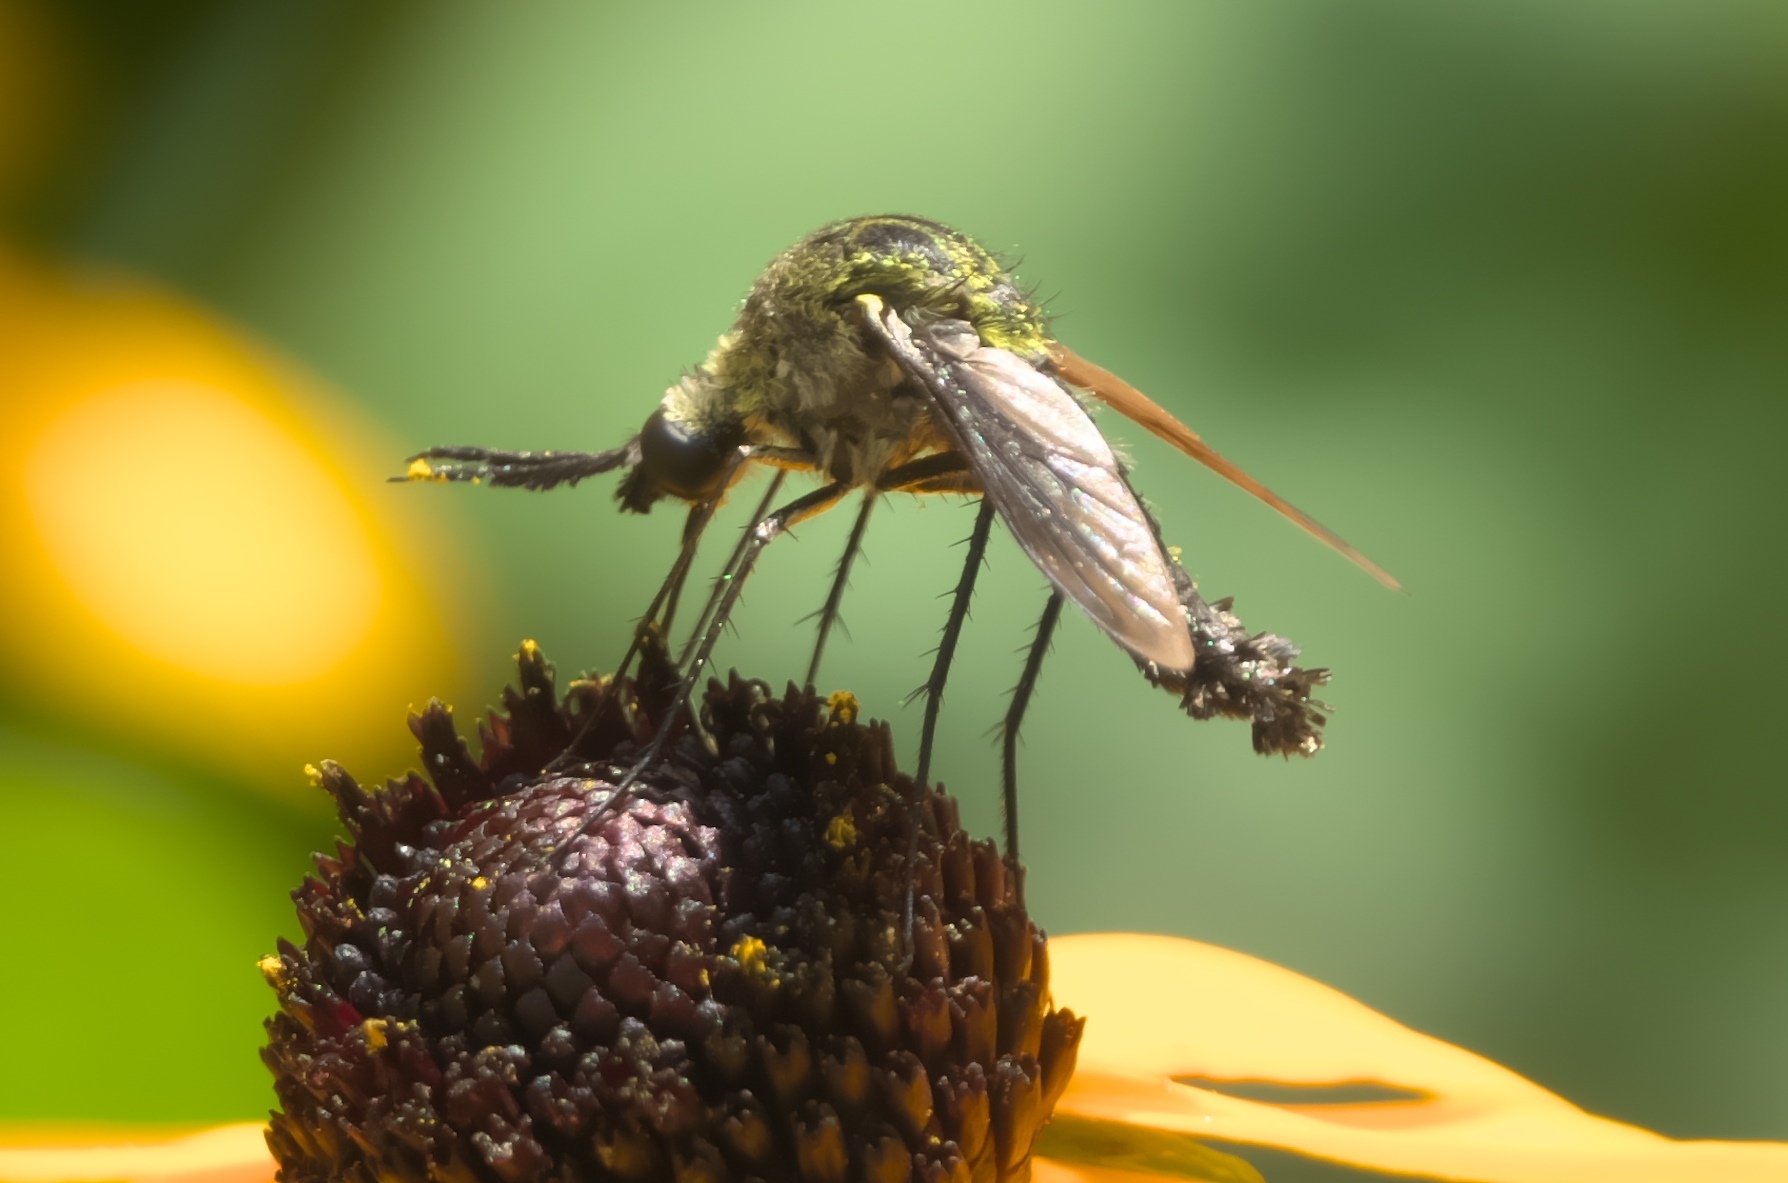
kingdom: Animalia
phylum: Arthropoda
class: Insecta
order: Diptera
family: Bombyliidae
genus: Lepidophora
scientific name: Lepidophora lepidocera
